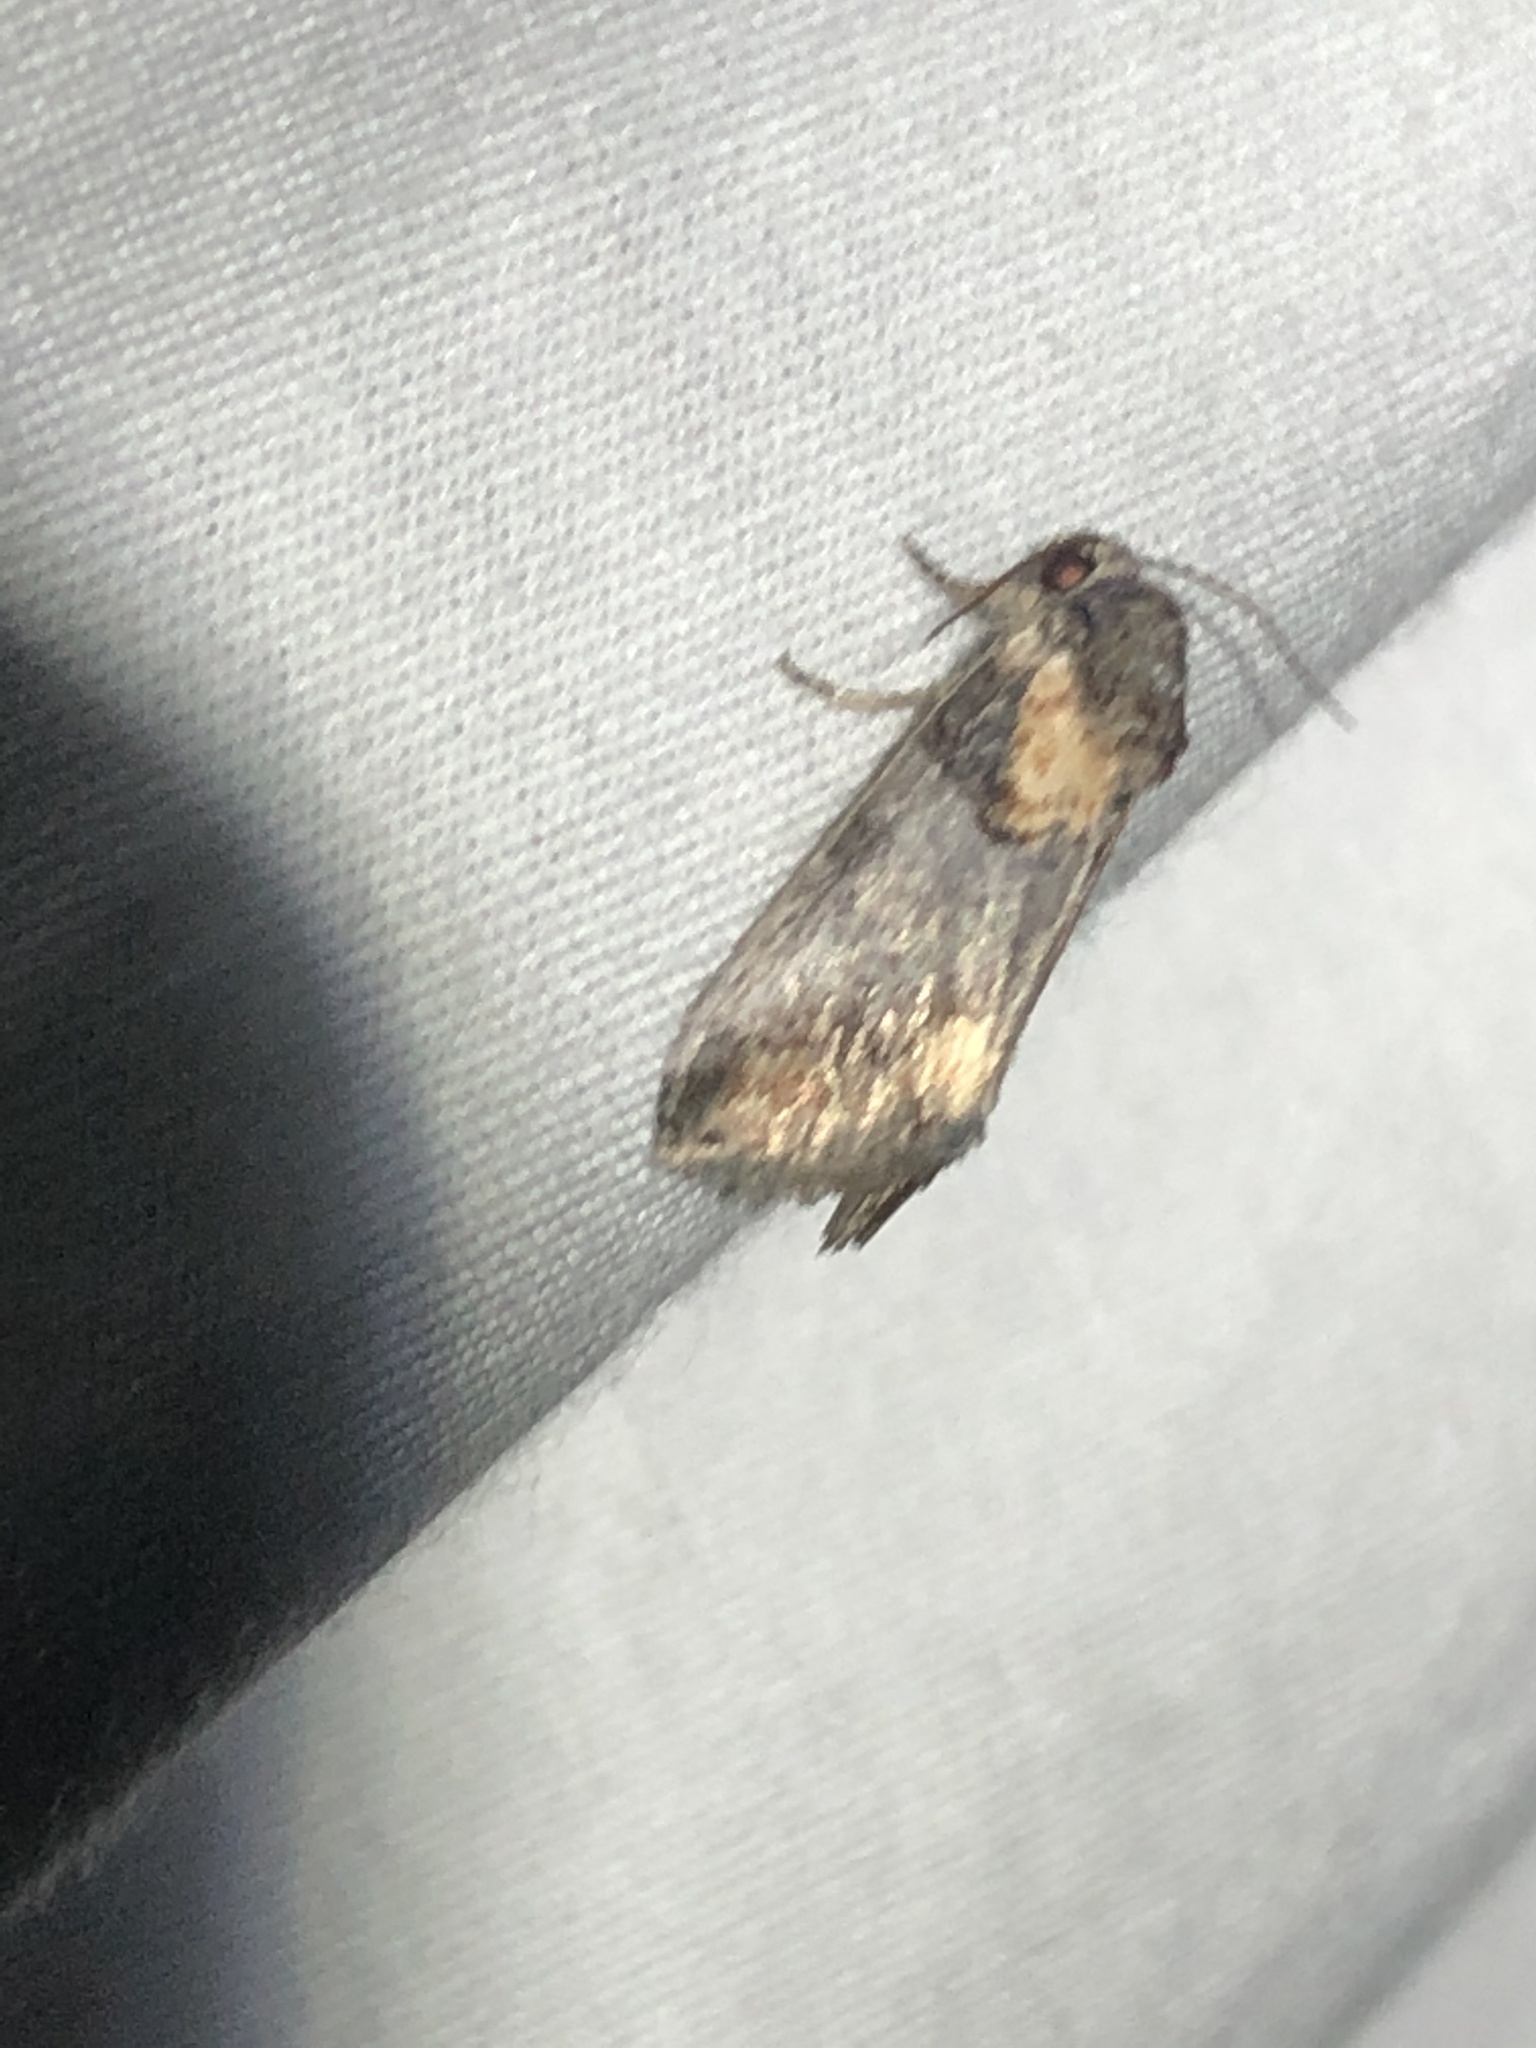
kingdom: Animalia
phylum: Arthropoda
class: Insecta
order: Lepidoptera
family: Noctuidae
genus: Aleptina
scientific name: Aleptina clinopetes
